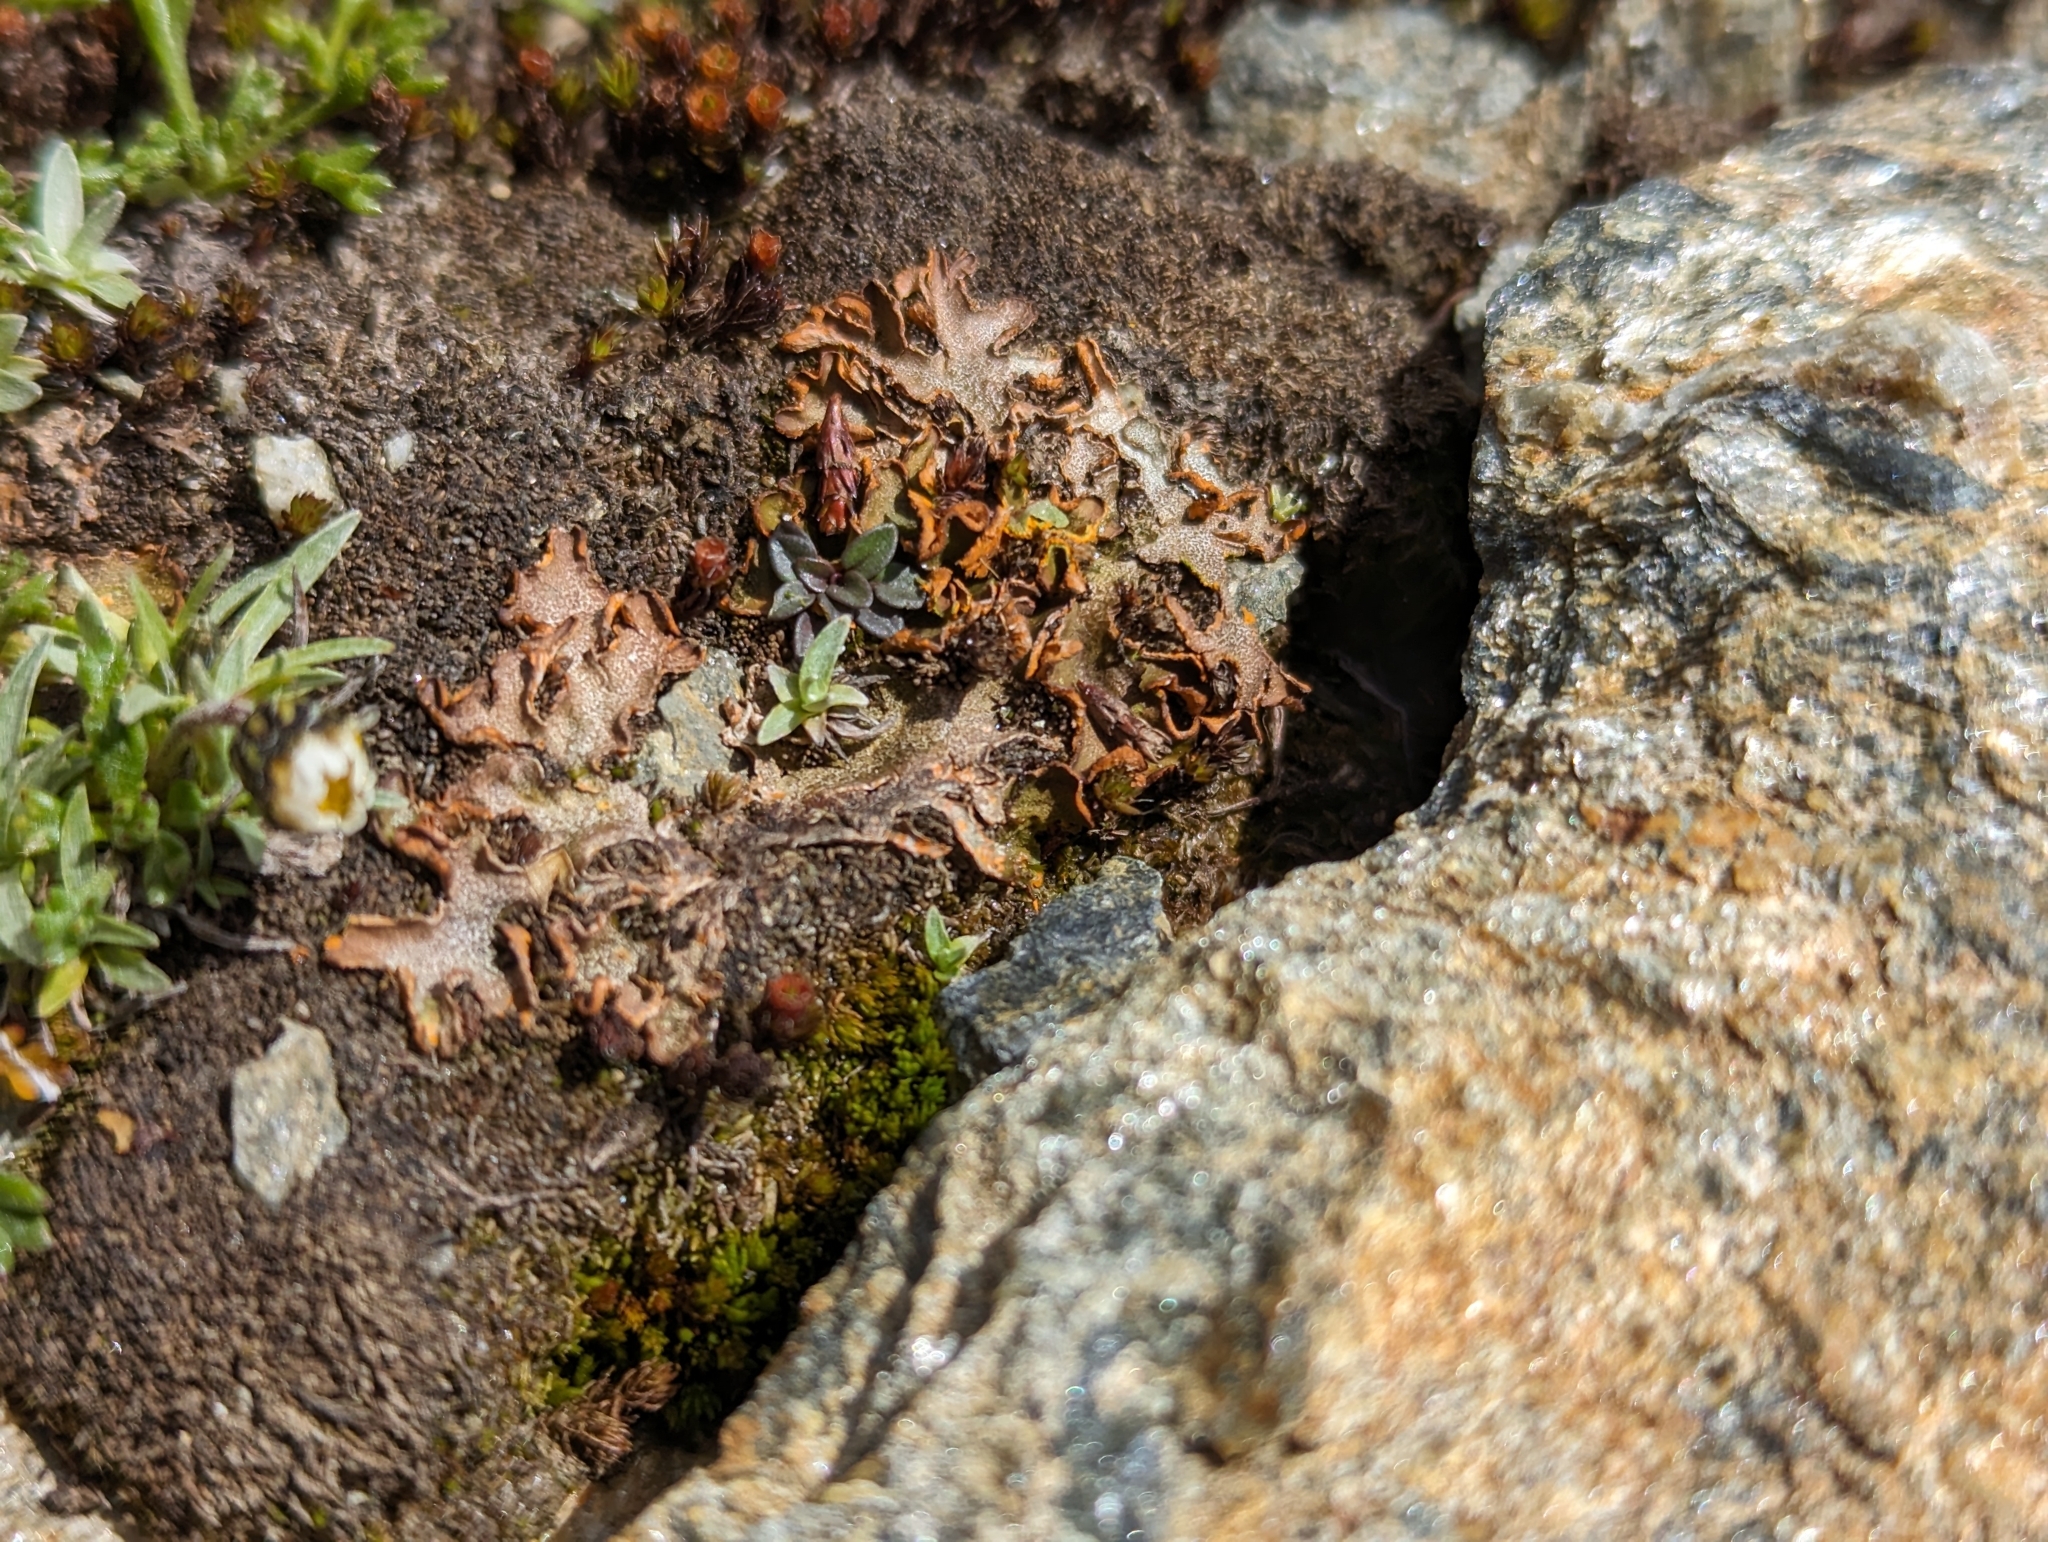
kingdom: Fungi
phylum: Ascomycota
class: Lecanoromycetes
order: Peltigerales
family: Peltigeraceae
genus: Solorina
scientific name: Solorina crocea
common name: Mountain saffron
